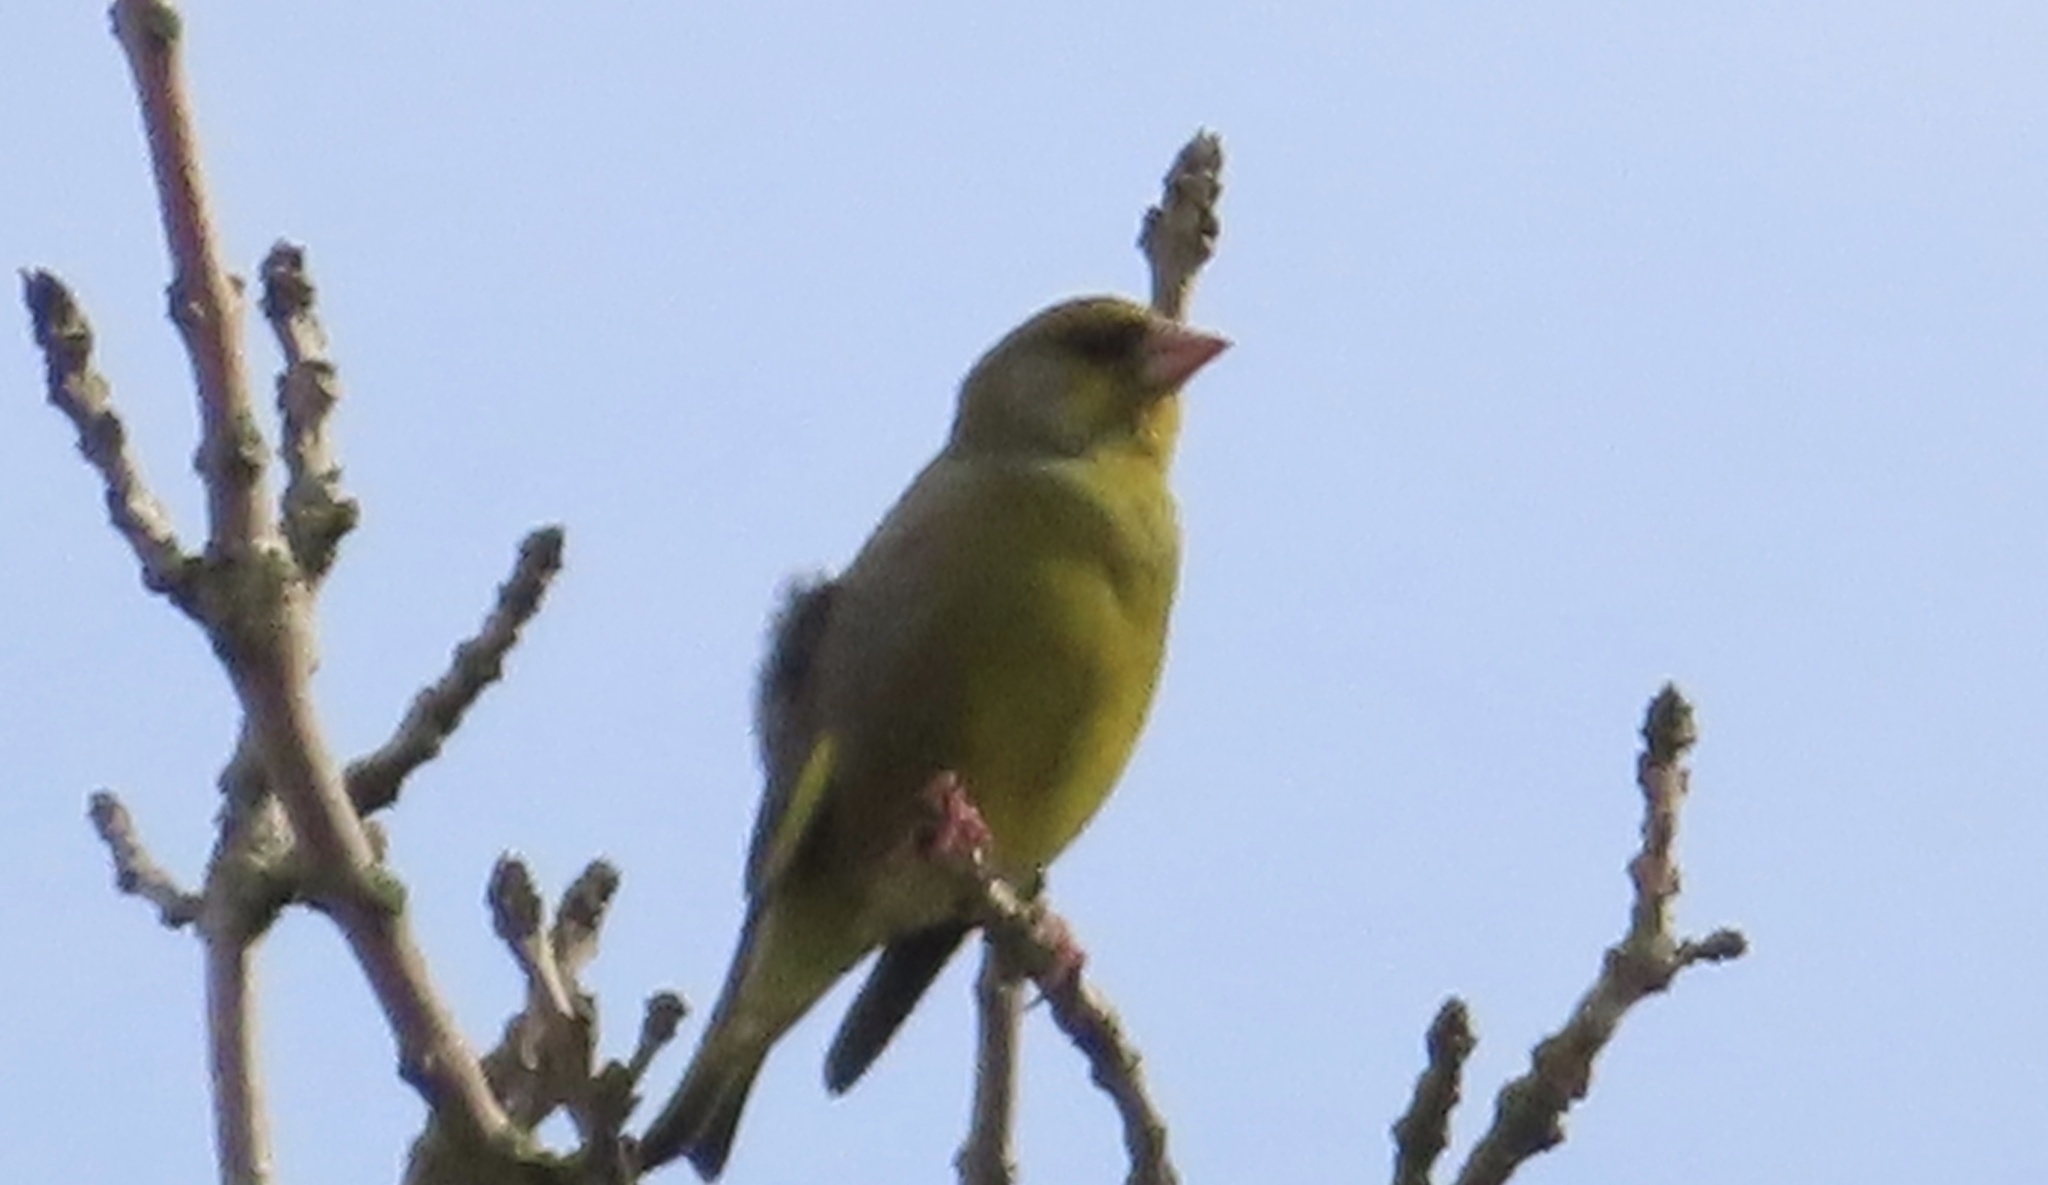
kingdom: Plantae
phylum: Tracheophyta
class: Liliopsida
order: Poales
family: Poaceae
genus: Chloris
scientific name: Chloris chloris
